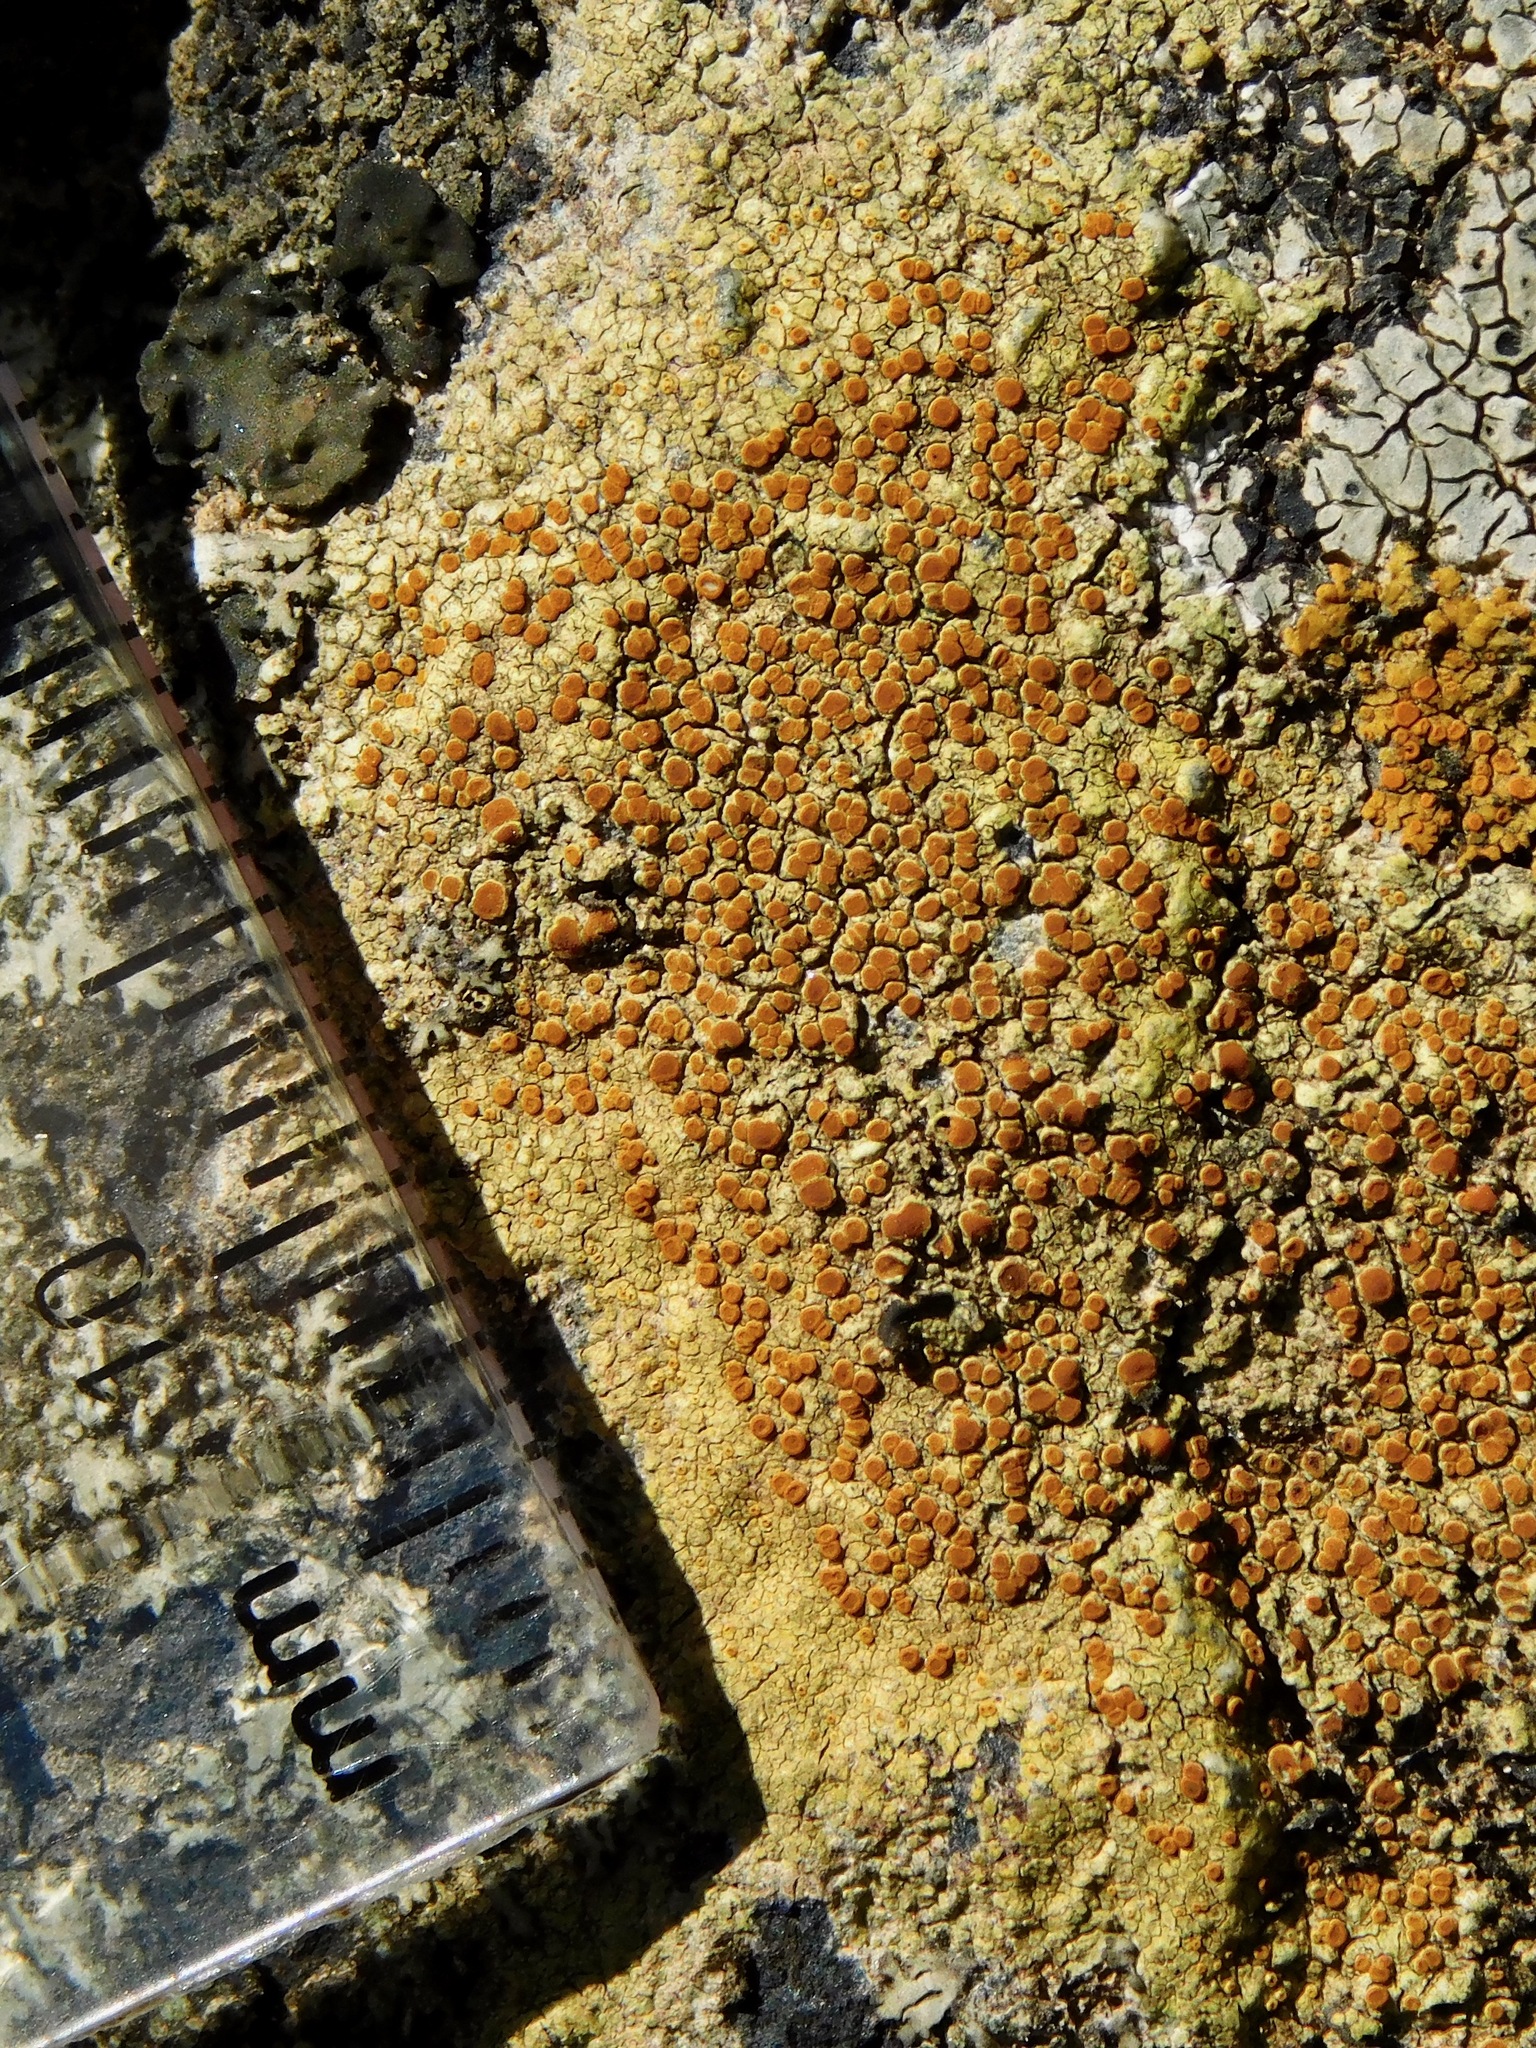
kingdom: Fungi
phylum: Ascomycota
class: Lecanoromycetes
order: Teloschistales
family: Teloschistaceae
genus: Gyalolechia
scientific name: Gyalolechia flavovirescens
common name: Sulphur firedot
